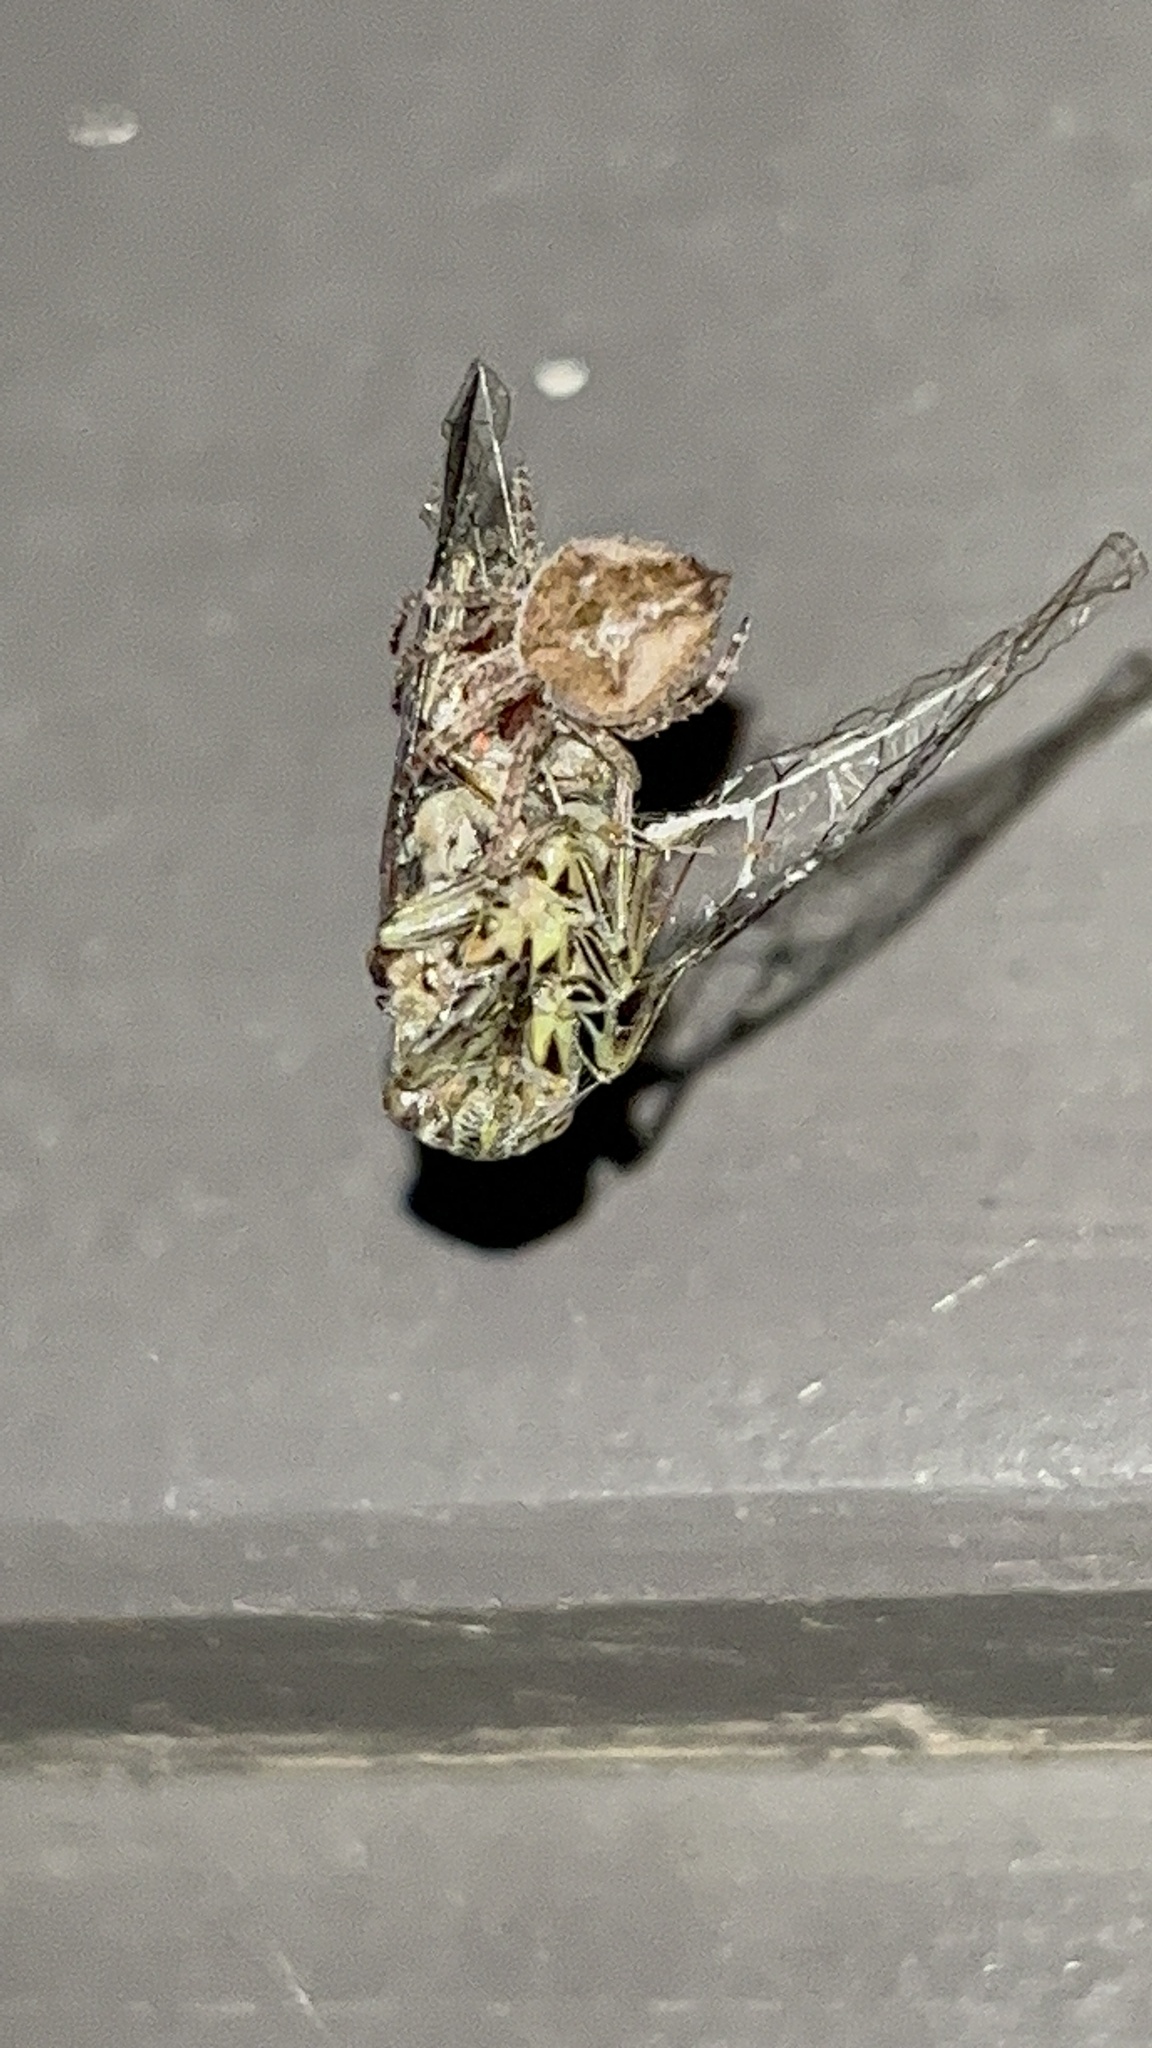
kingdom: Animalia
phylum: Arthropoda
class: Arachnida
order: Araneae
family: Araneidae
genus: Eriophora
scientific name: Eriophora pustulosa
